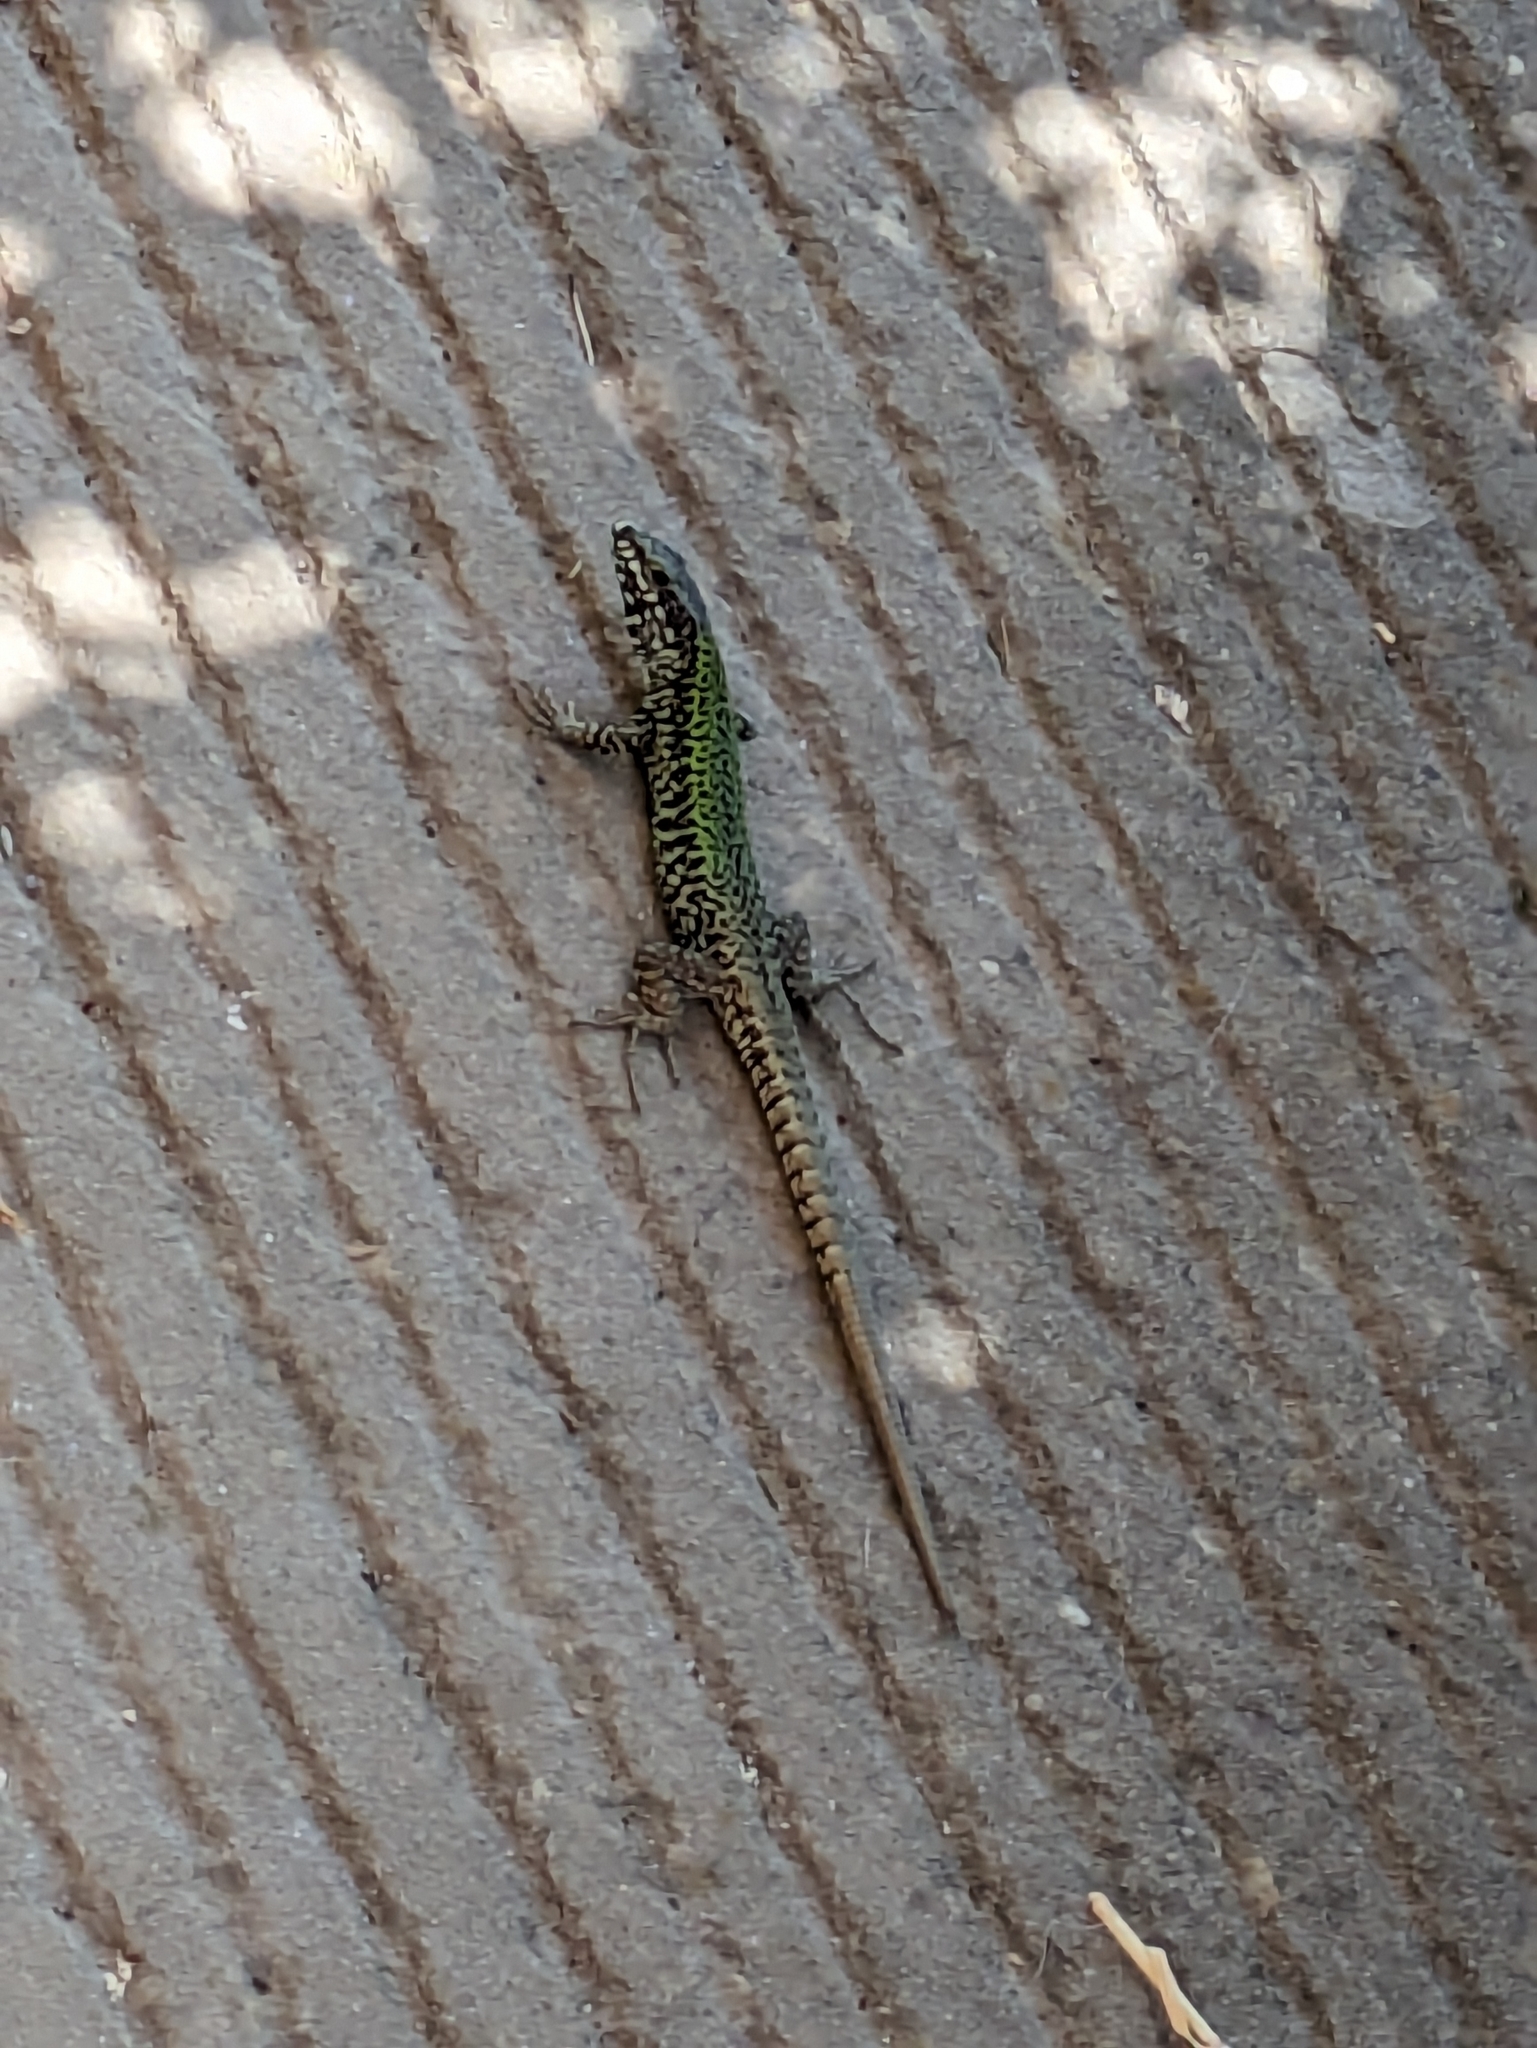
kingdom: Animalia
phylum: Chordata
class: Squamata
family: Lacertidae
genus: Podarcis
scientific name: Podarcis muralis
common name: Common wall lizard
